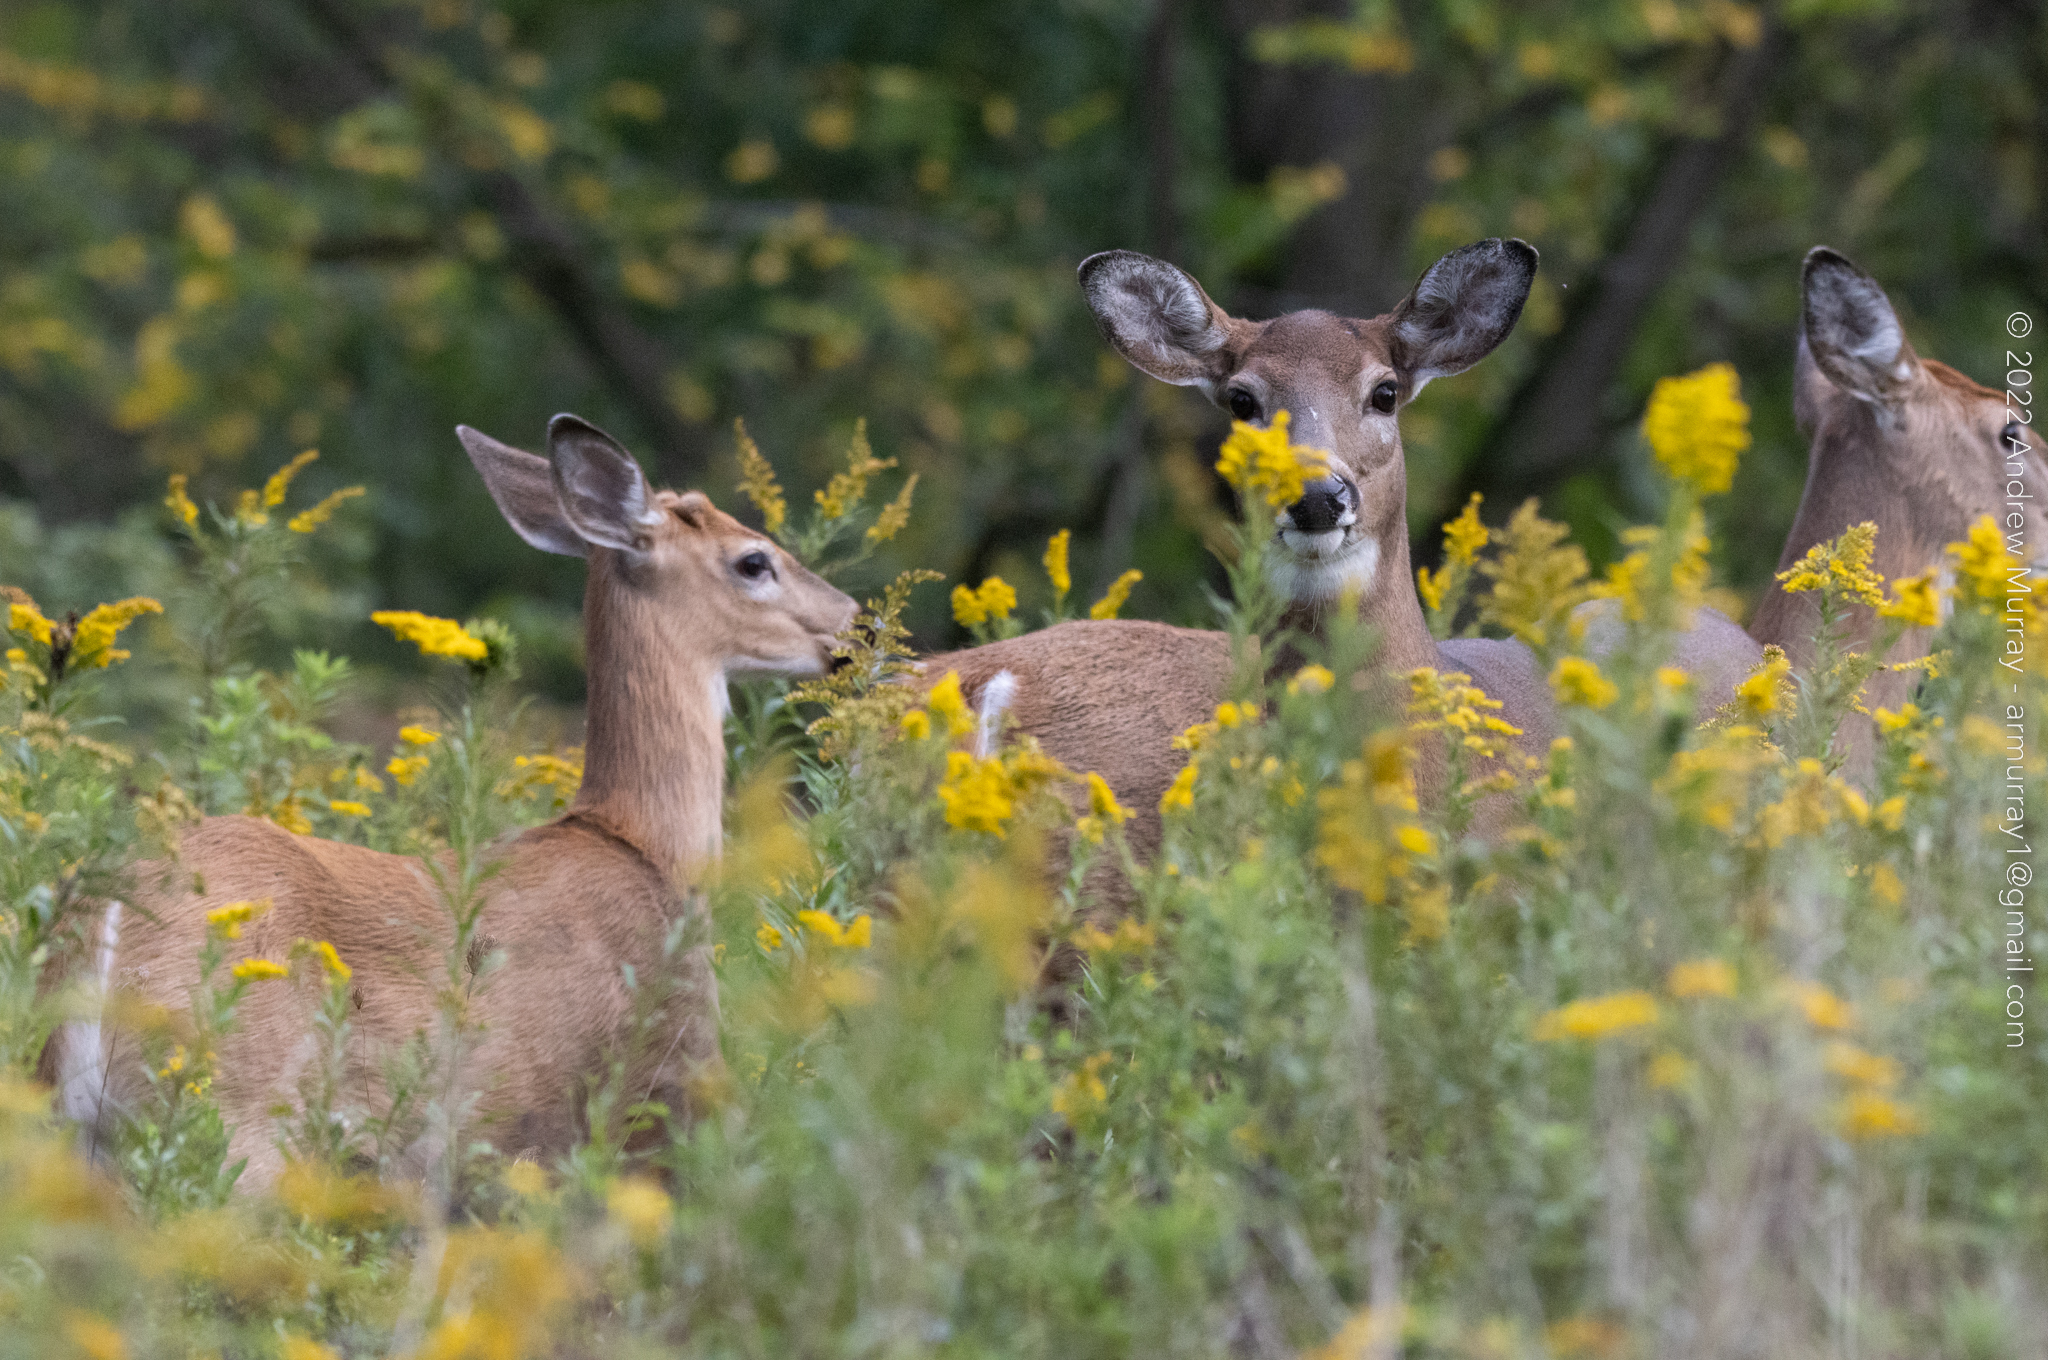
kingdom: Animalia
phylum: Chordata
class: Mammalia
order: Artiodactyla
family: Cervidae
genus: Odocoileus
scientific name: Odocoileus virginianus
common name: White-tailed deer
